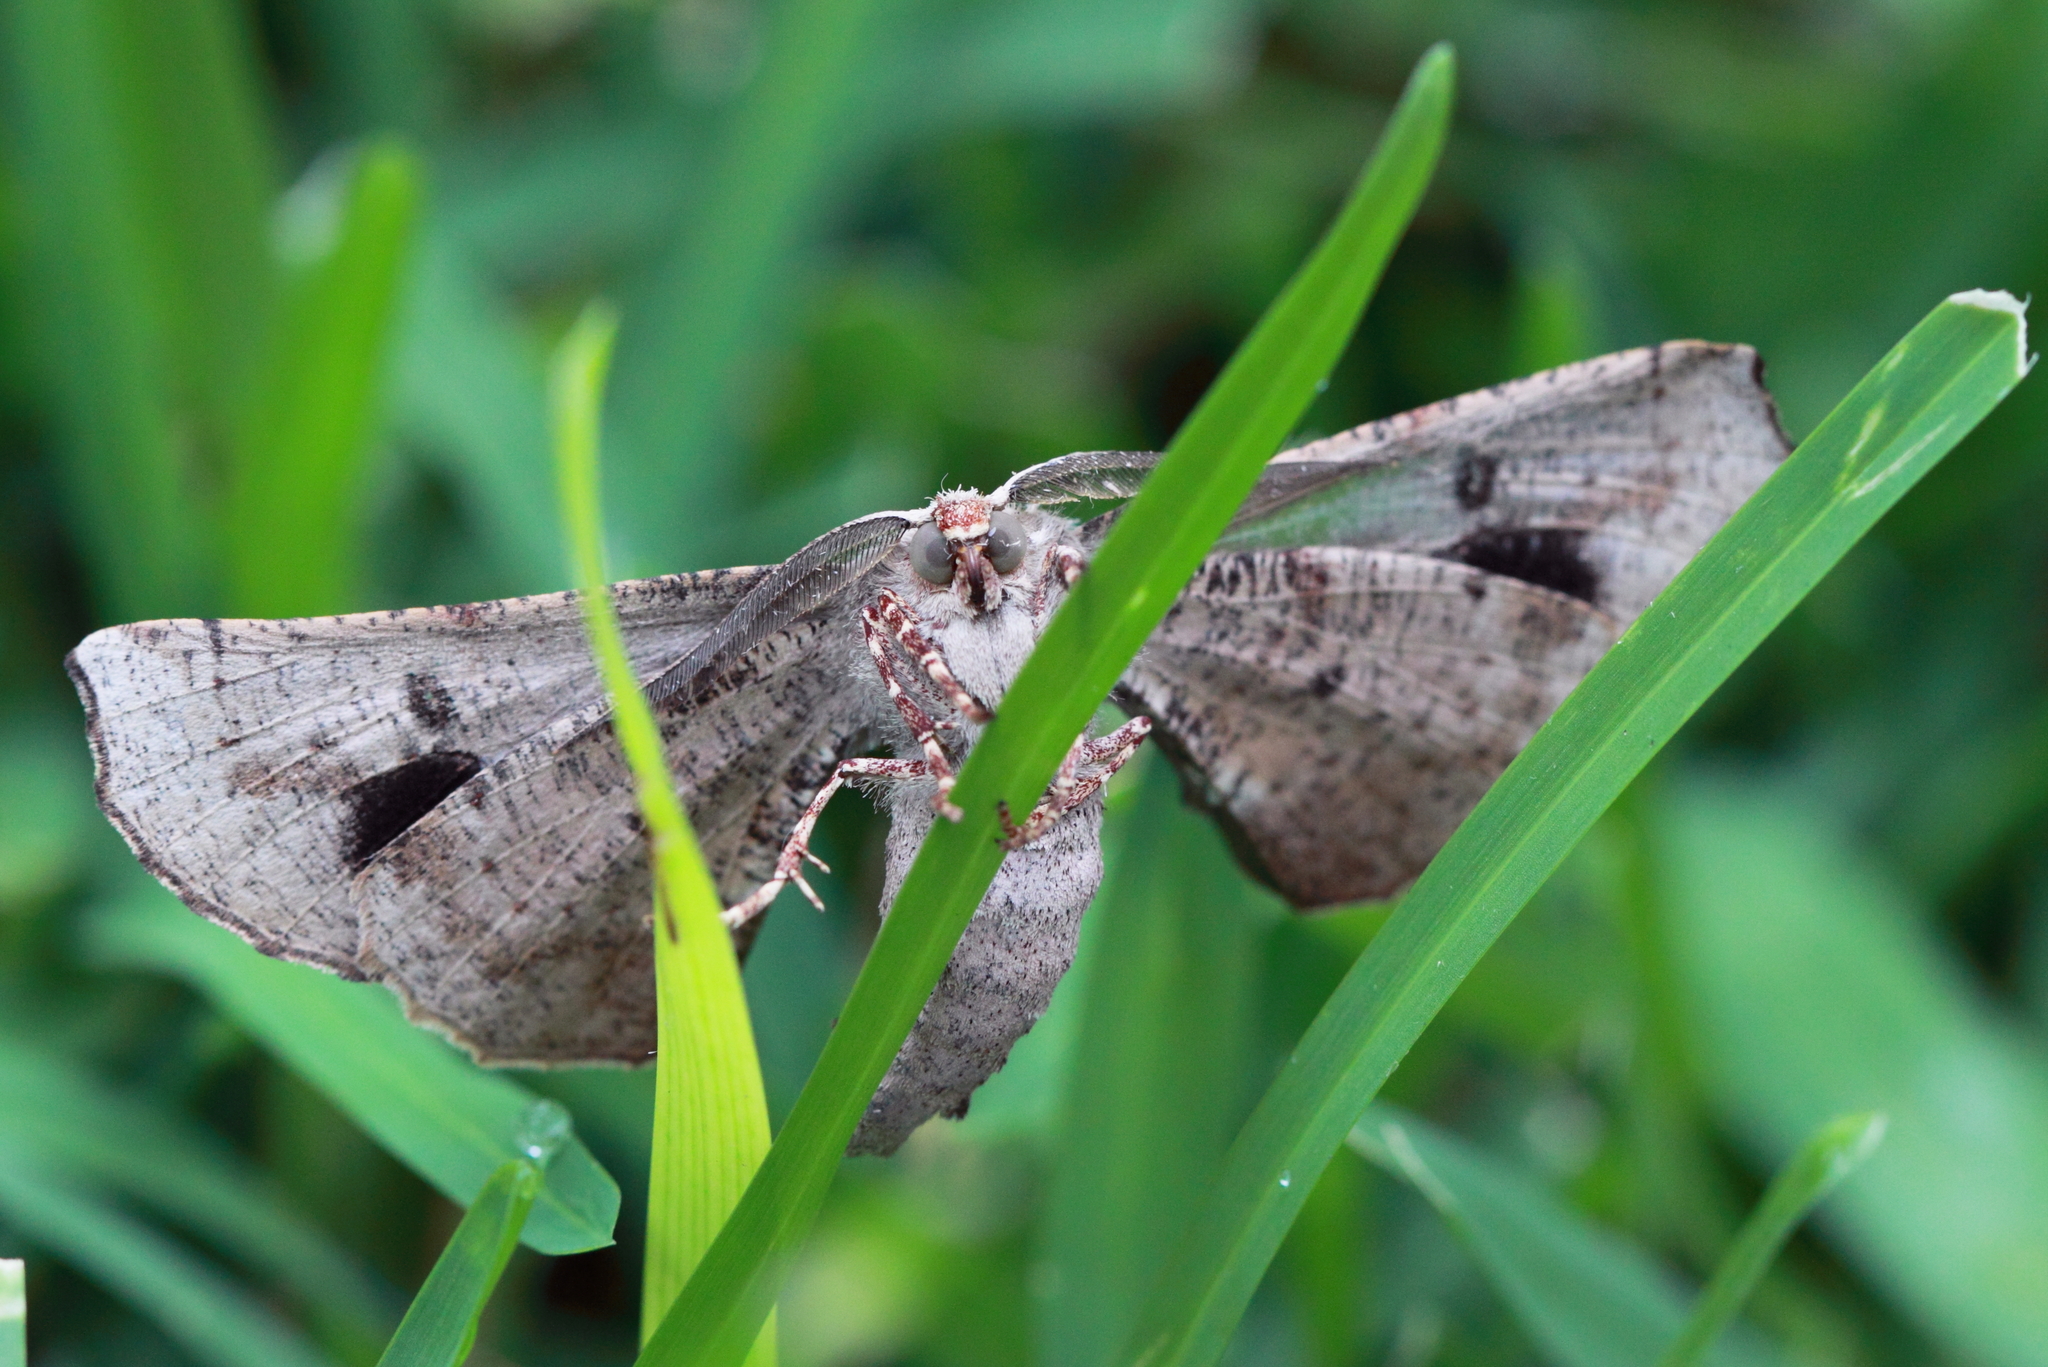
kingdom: Animalia
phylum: Arthropoda
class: Insecta
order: Lepidoptera
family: Geometridae
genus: Circopetes
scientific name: Circopetes obtusata
